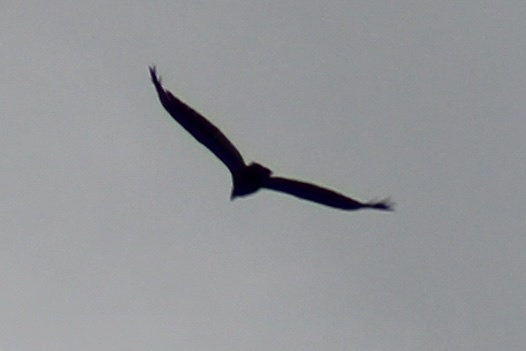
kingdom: Animalia
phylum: Chordata
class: Aves
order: Accipitriformes
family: Cathartidae
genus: Cathartes
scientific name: Cathartes aura
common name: Turkey vulture
